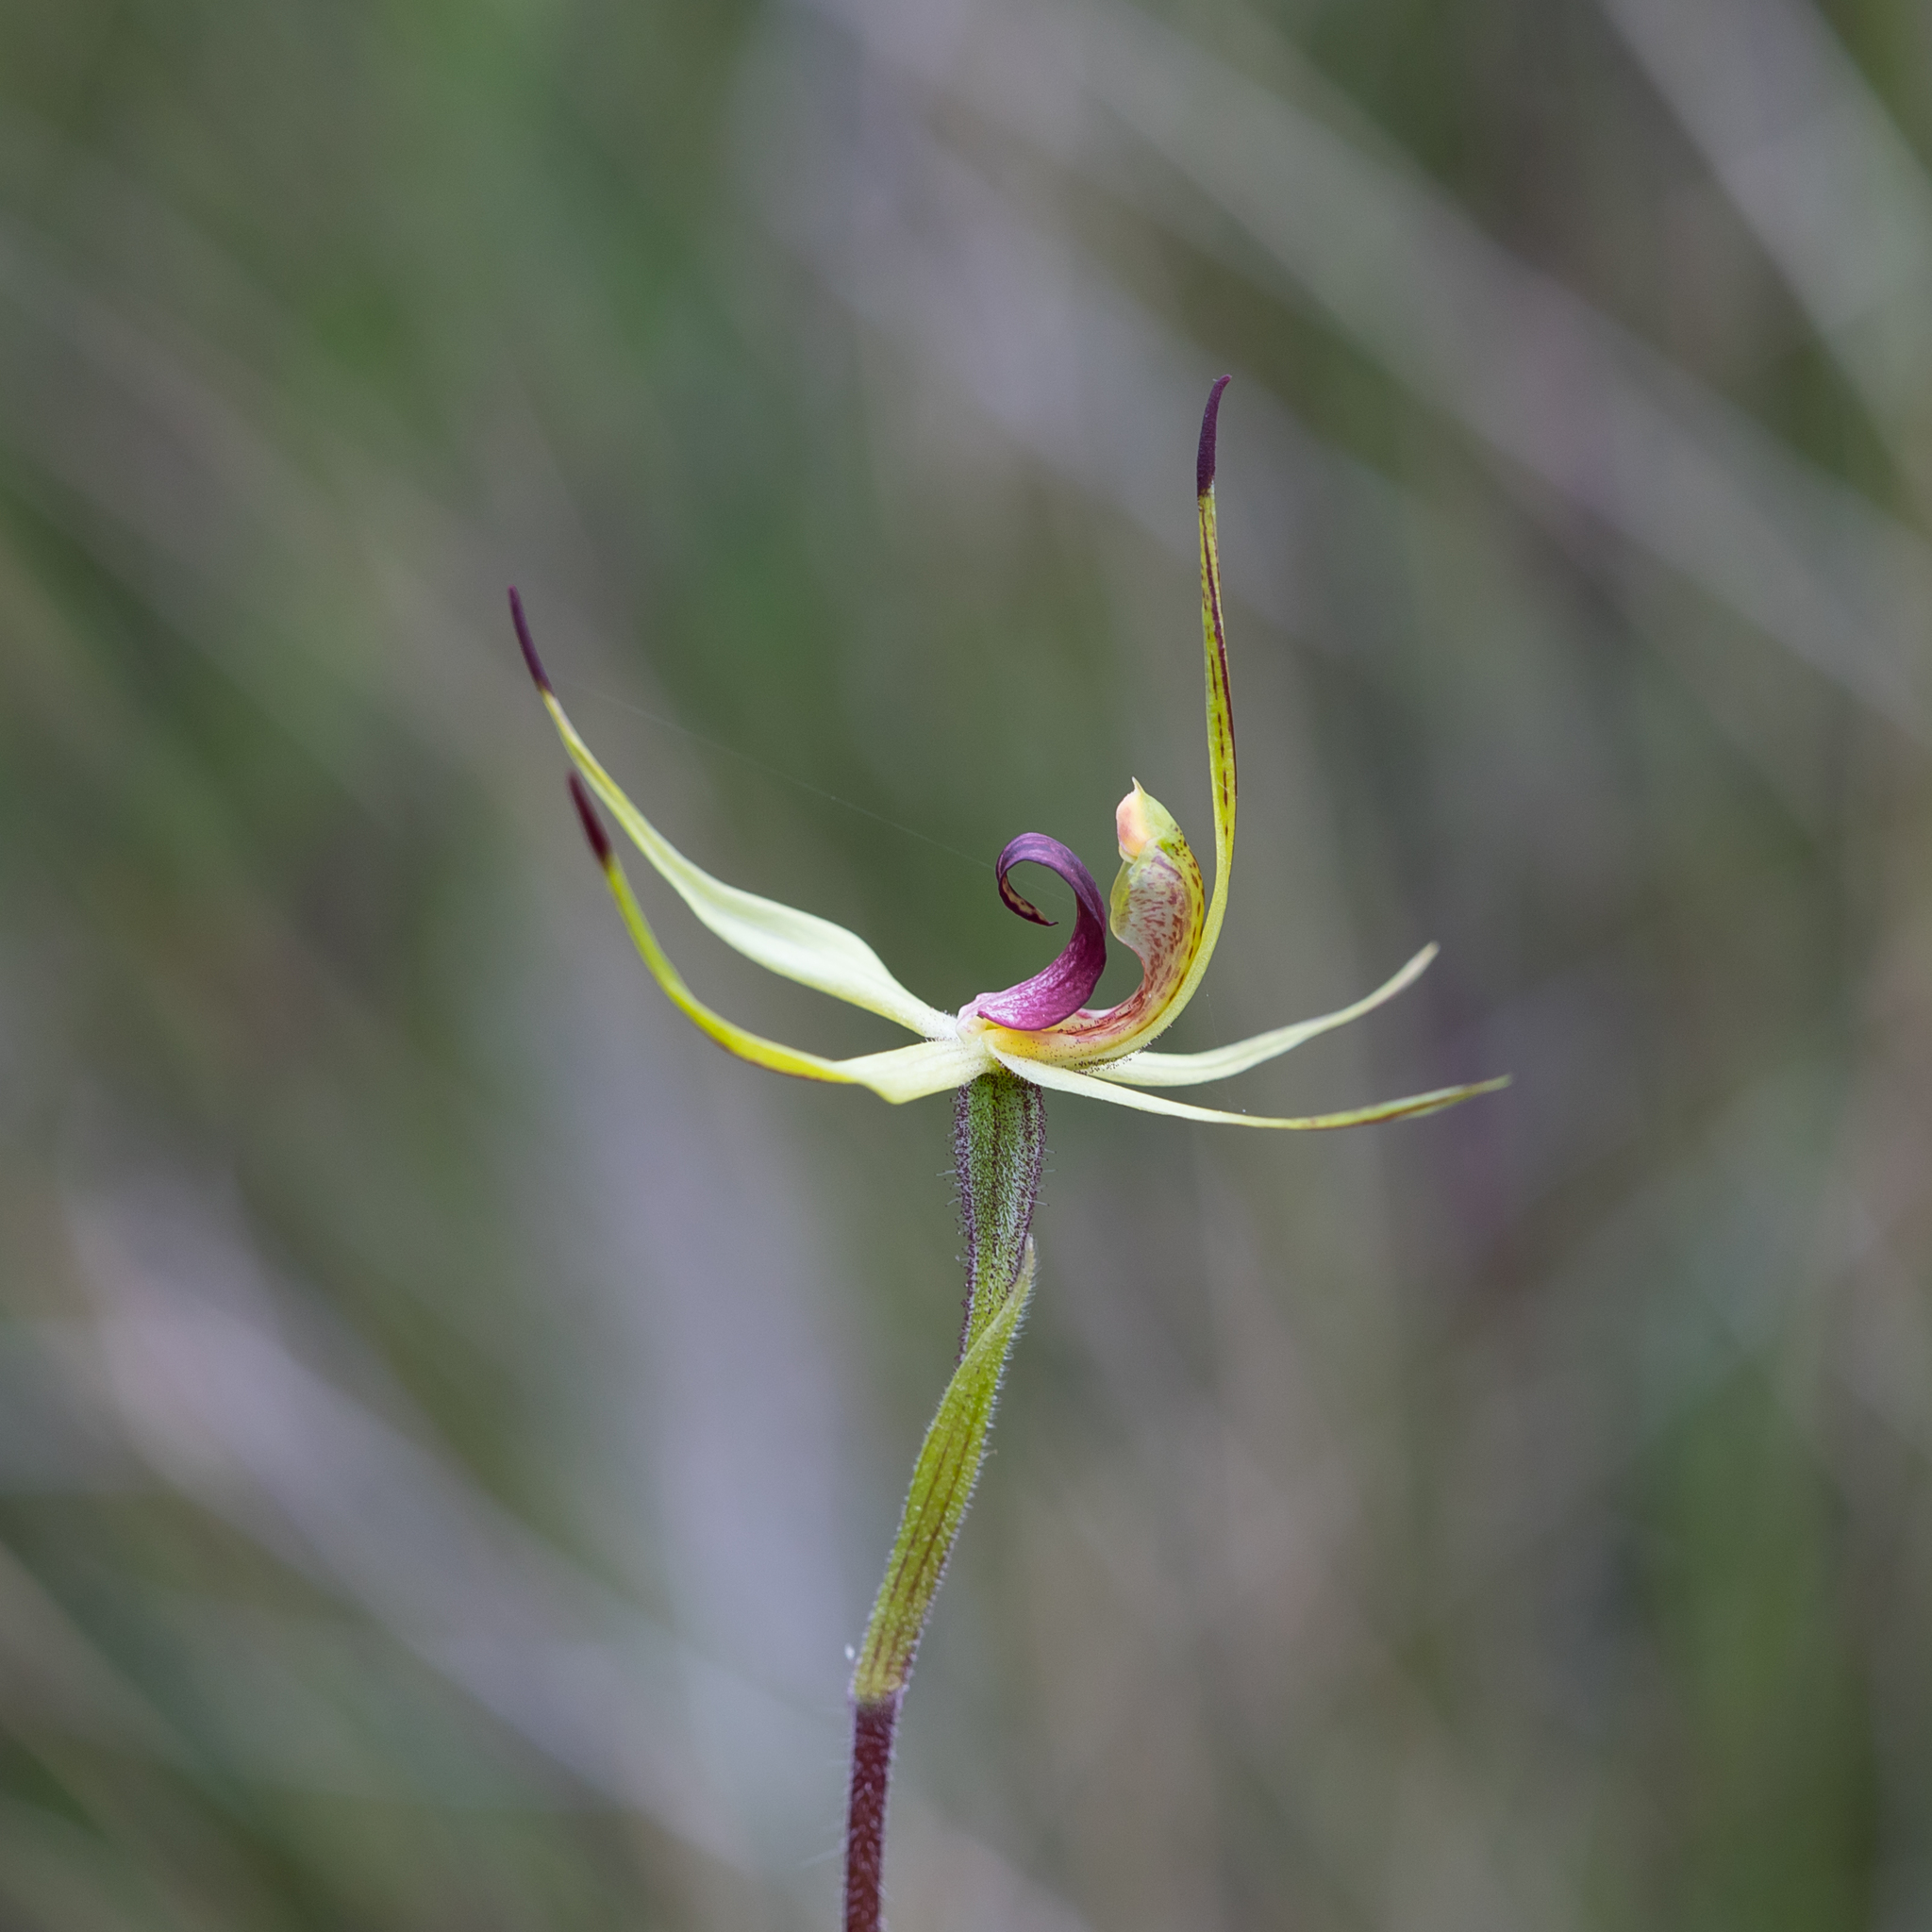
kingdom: Plantae
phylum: Tracheophyta
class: Liliopsida
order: Asparagales
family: Orchidaceae
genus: Caladenia
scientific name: Caladenia leptochila
